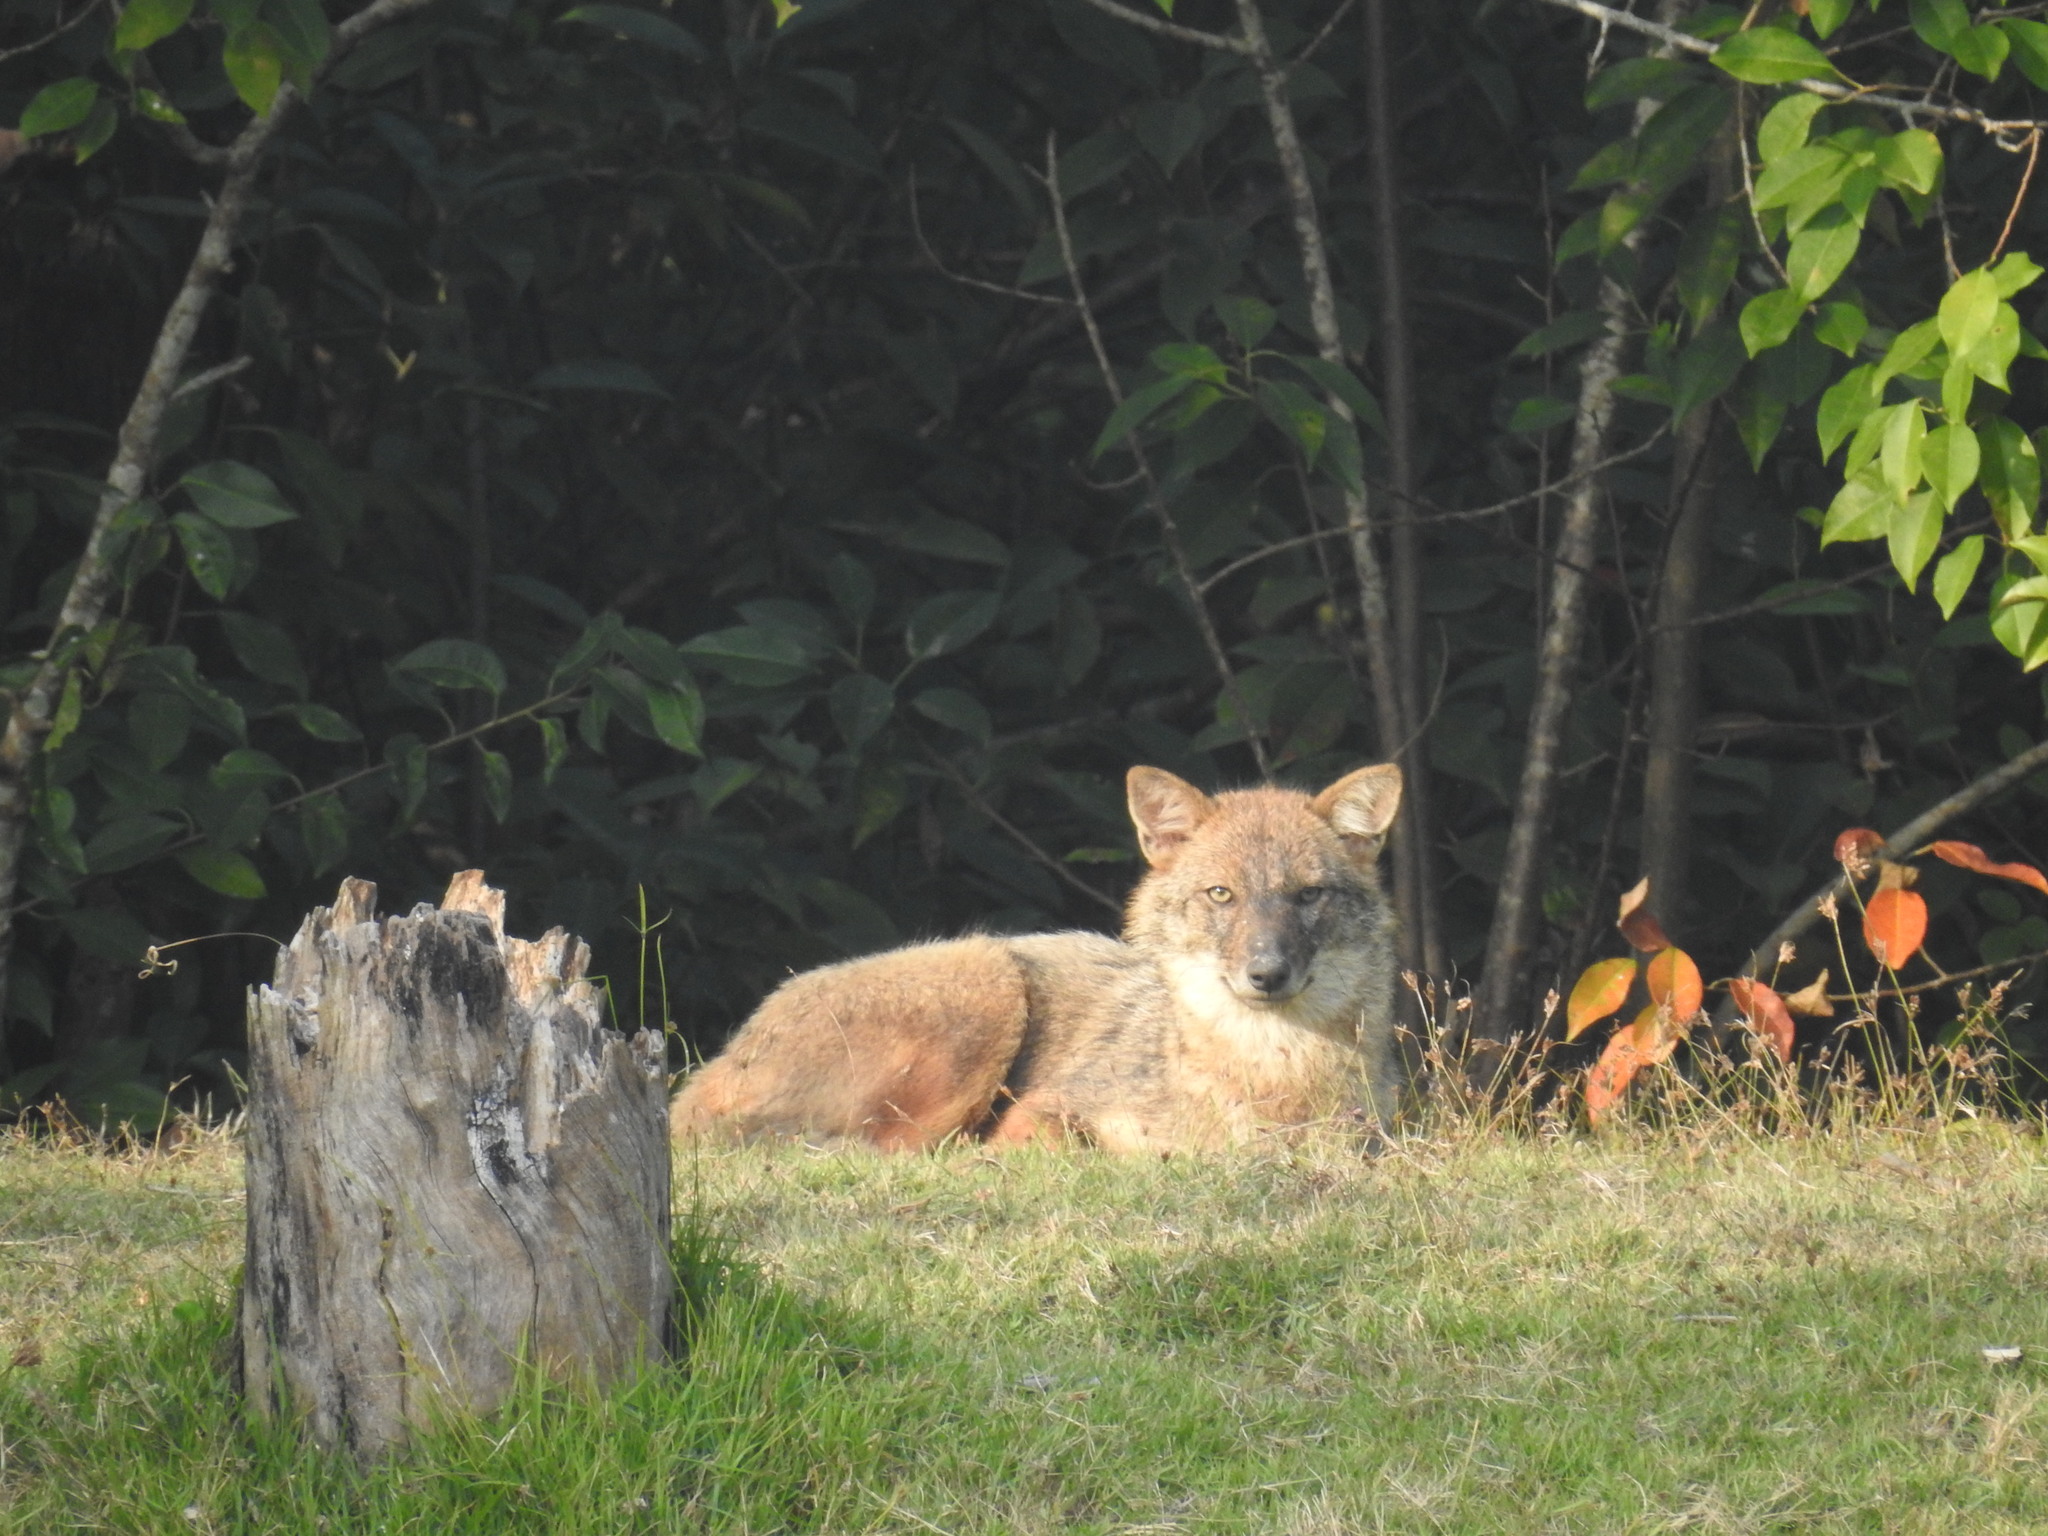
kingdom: Animalia
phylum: Chordata
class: Mammalia
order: Carnivora
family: Canidae
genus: Canis
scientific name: Canis aureus
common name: Golden jackal
